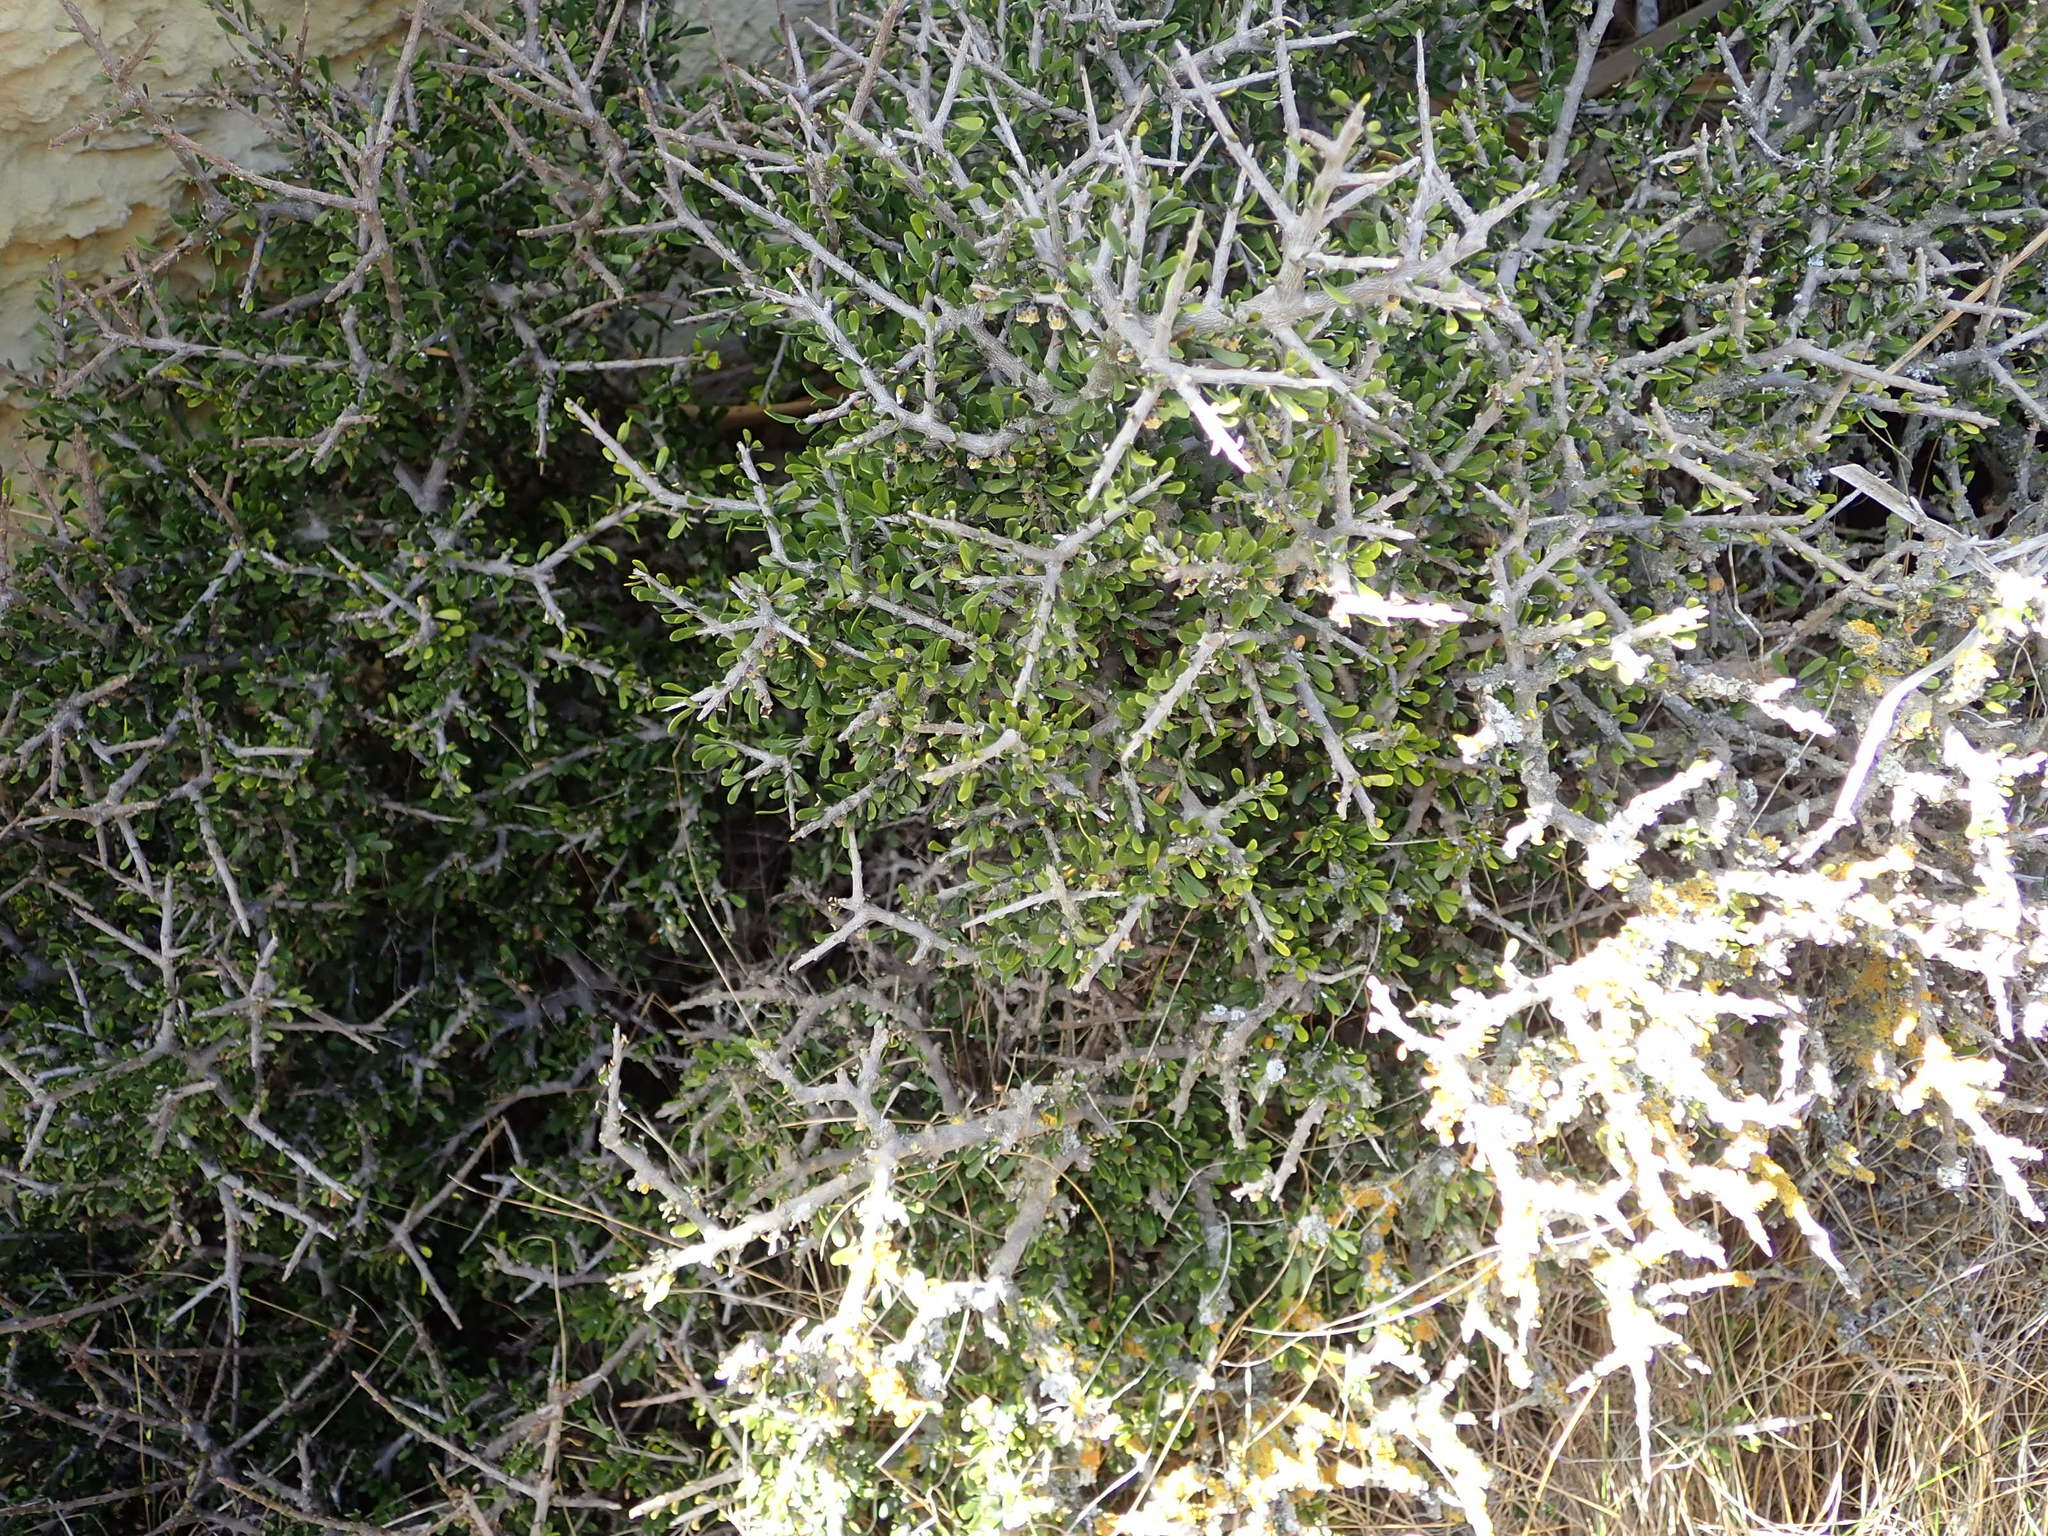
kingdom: Plantae
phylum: Tracheophyta
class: Magnoliopsida
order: Malpighiales
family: Violaceae
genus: Melicytus
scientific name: Melicytus alpinus
